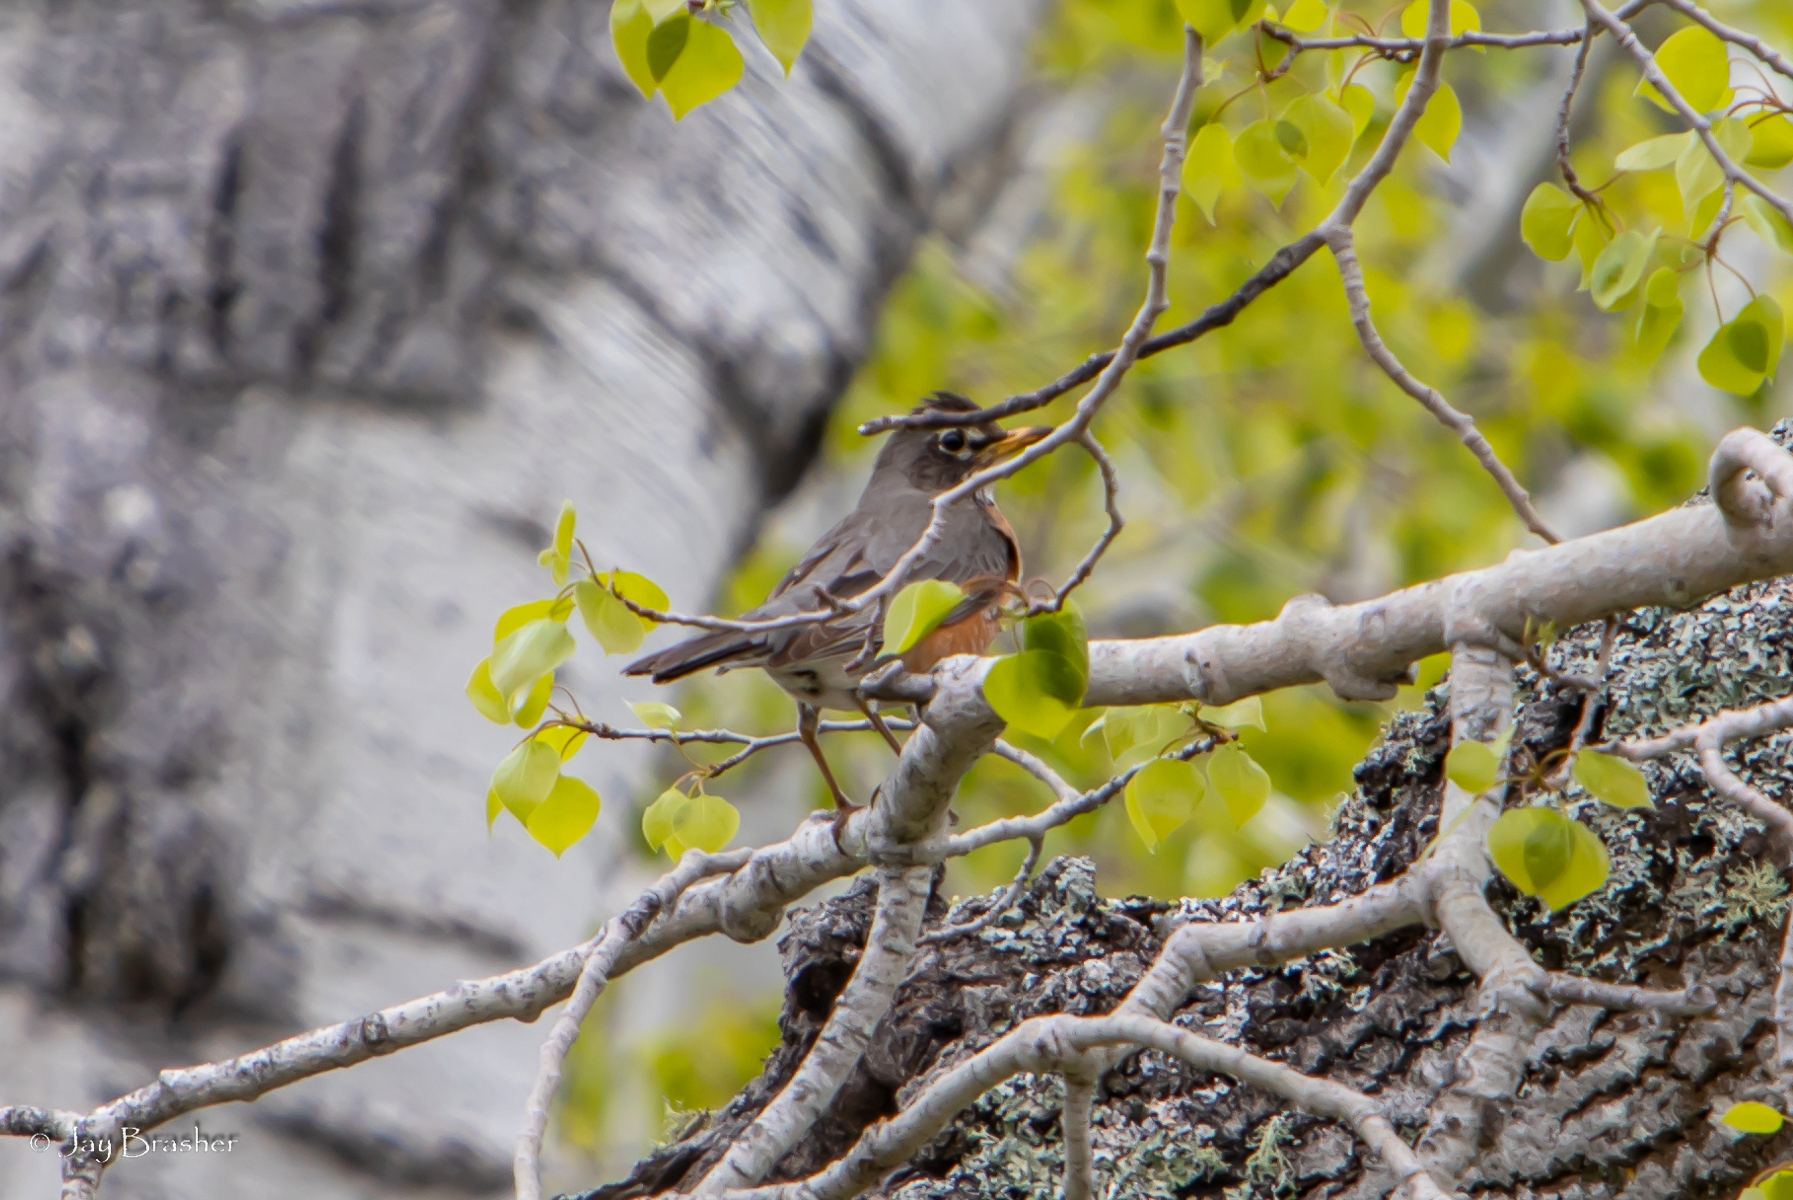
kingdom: Animalia
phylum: Chordata
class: Aves
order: Passeriformes
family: Turdidae
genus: Turdus
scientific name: Turdus migratorius
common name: American robin
